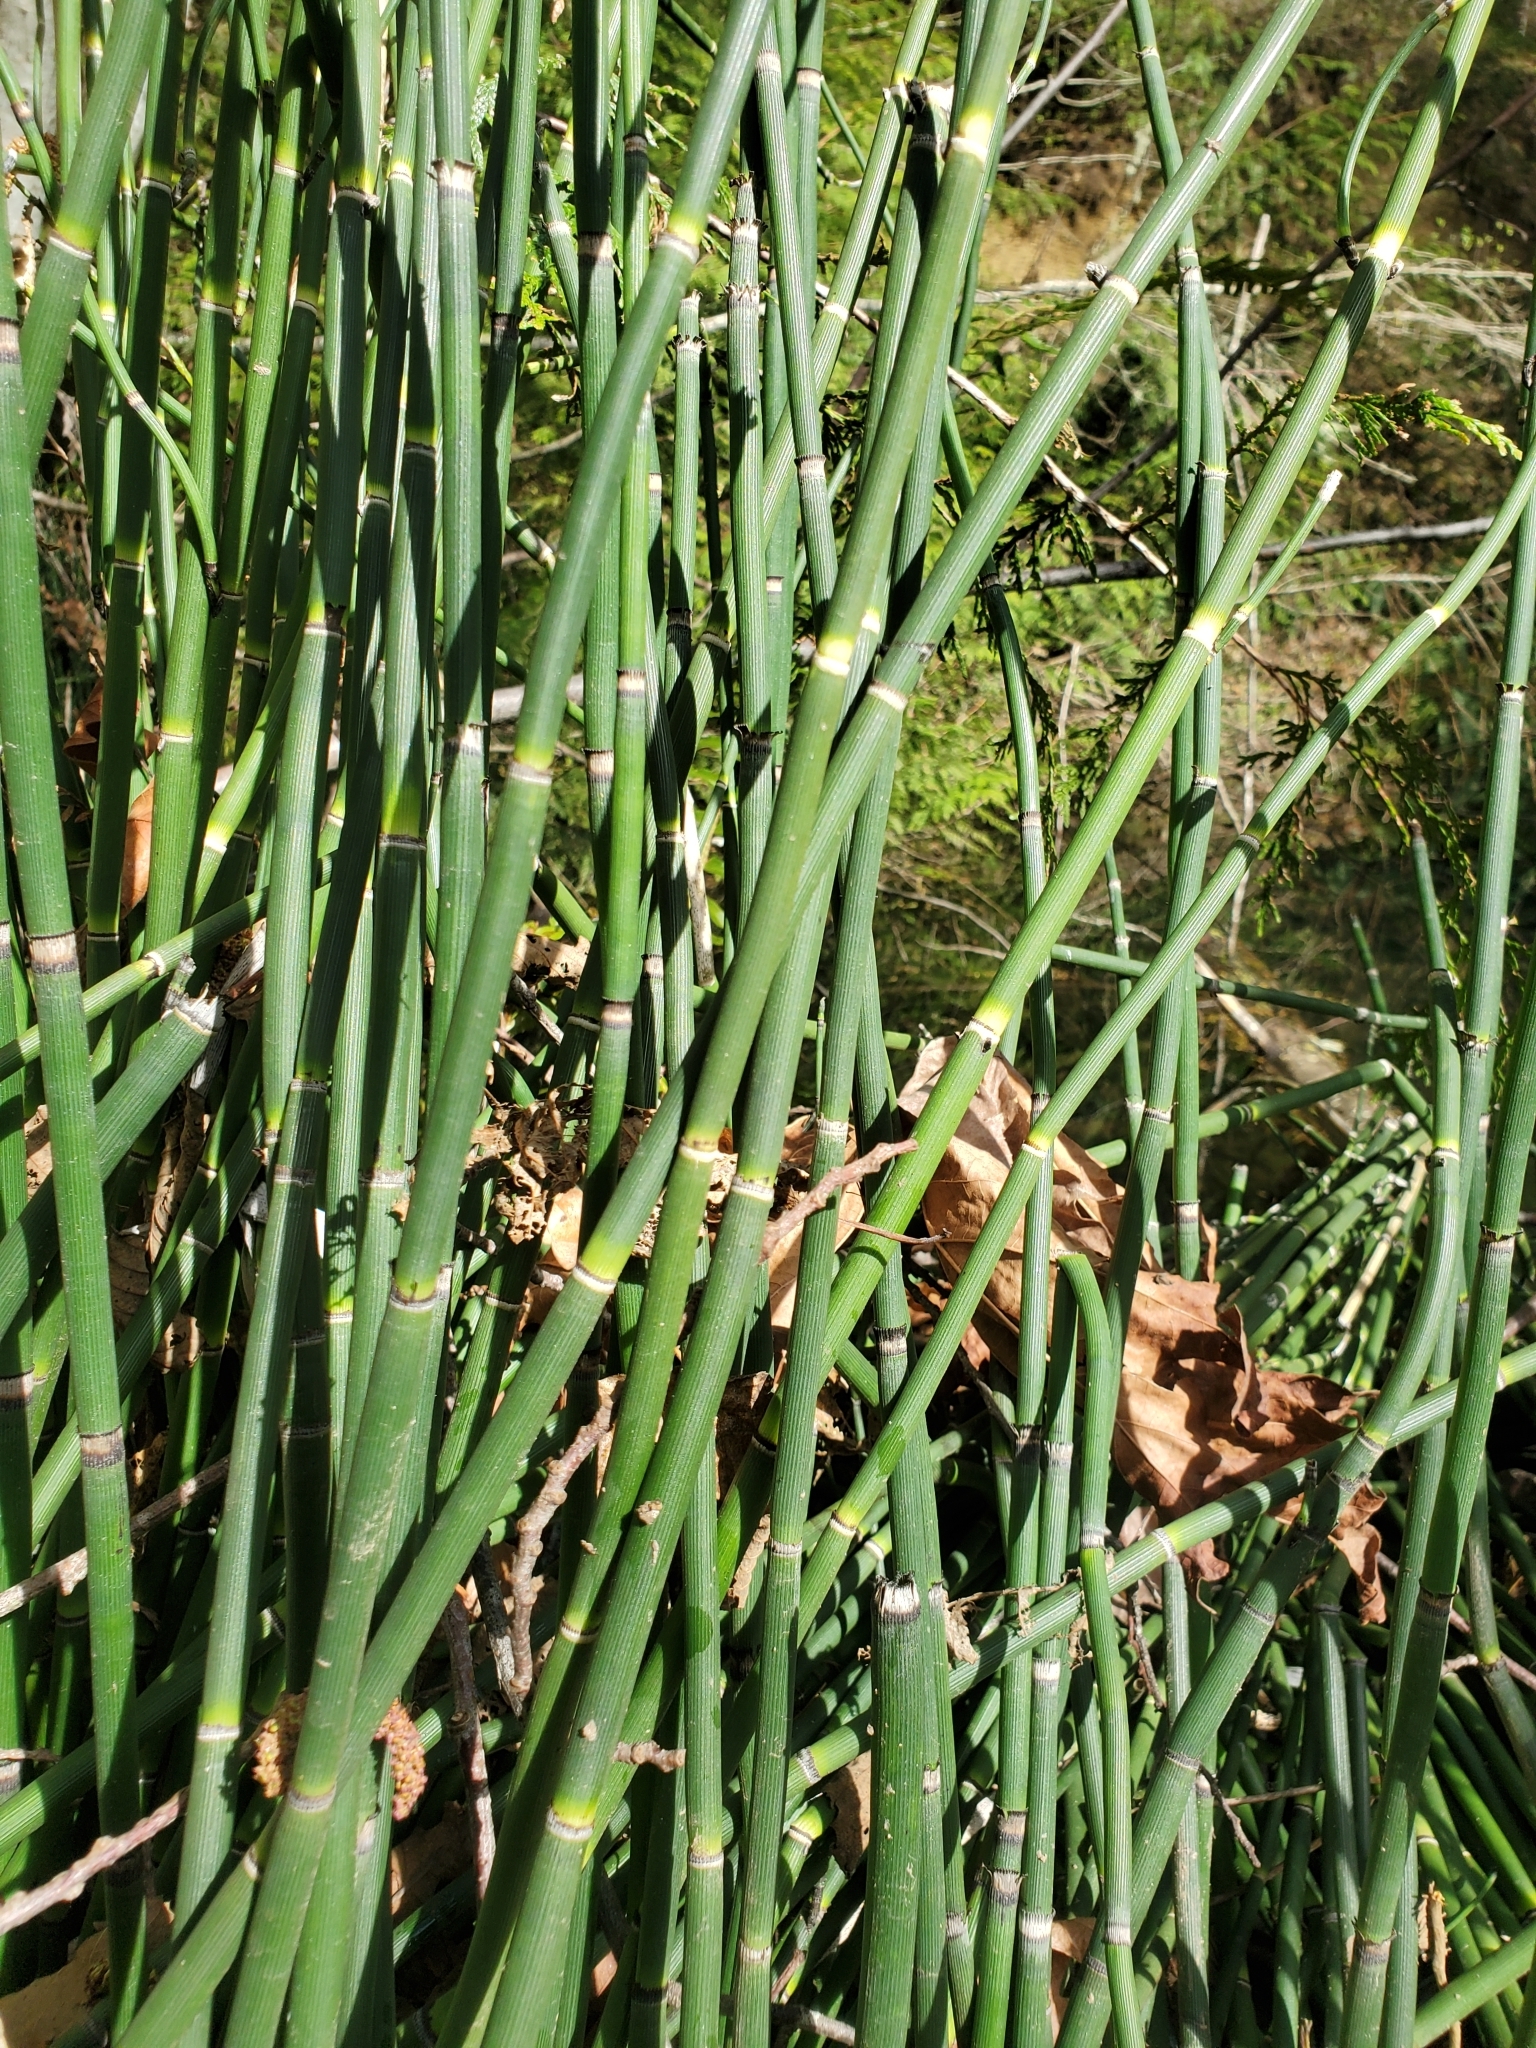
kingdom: Plantae
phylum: Tracheophyta
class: Polypodiopsida
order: Equisetales
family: Equisetaceae
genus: Equisetum
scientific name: Equisetum hyemale
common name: Rough horsetail
